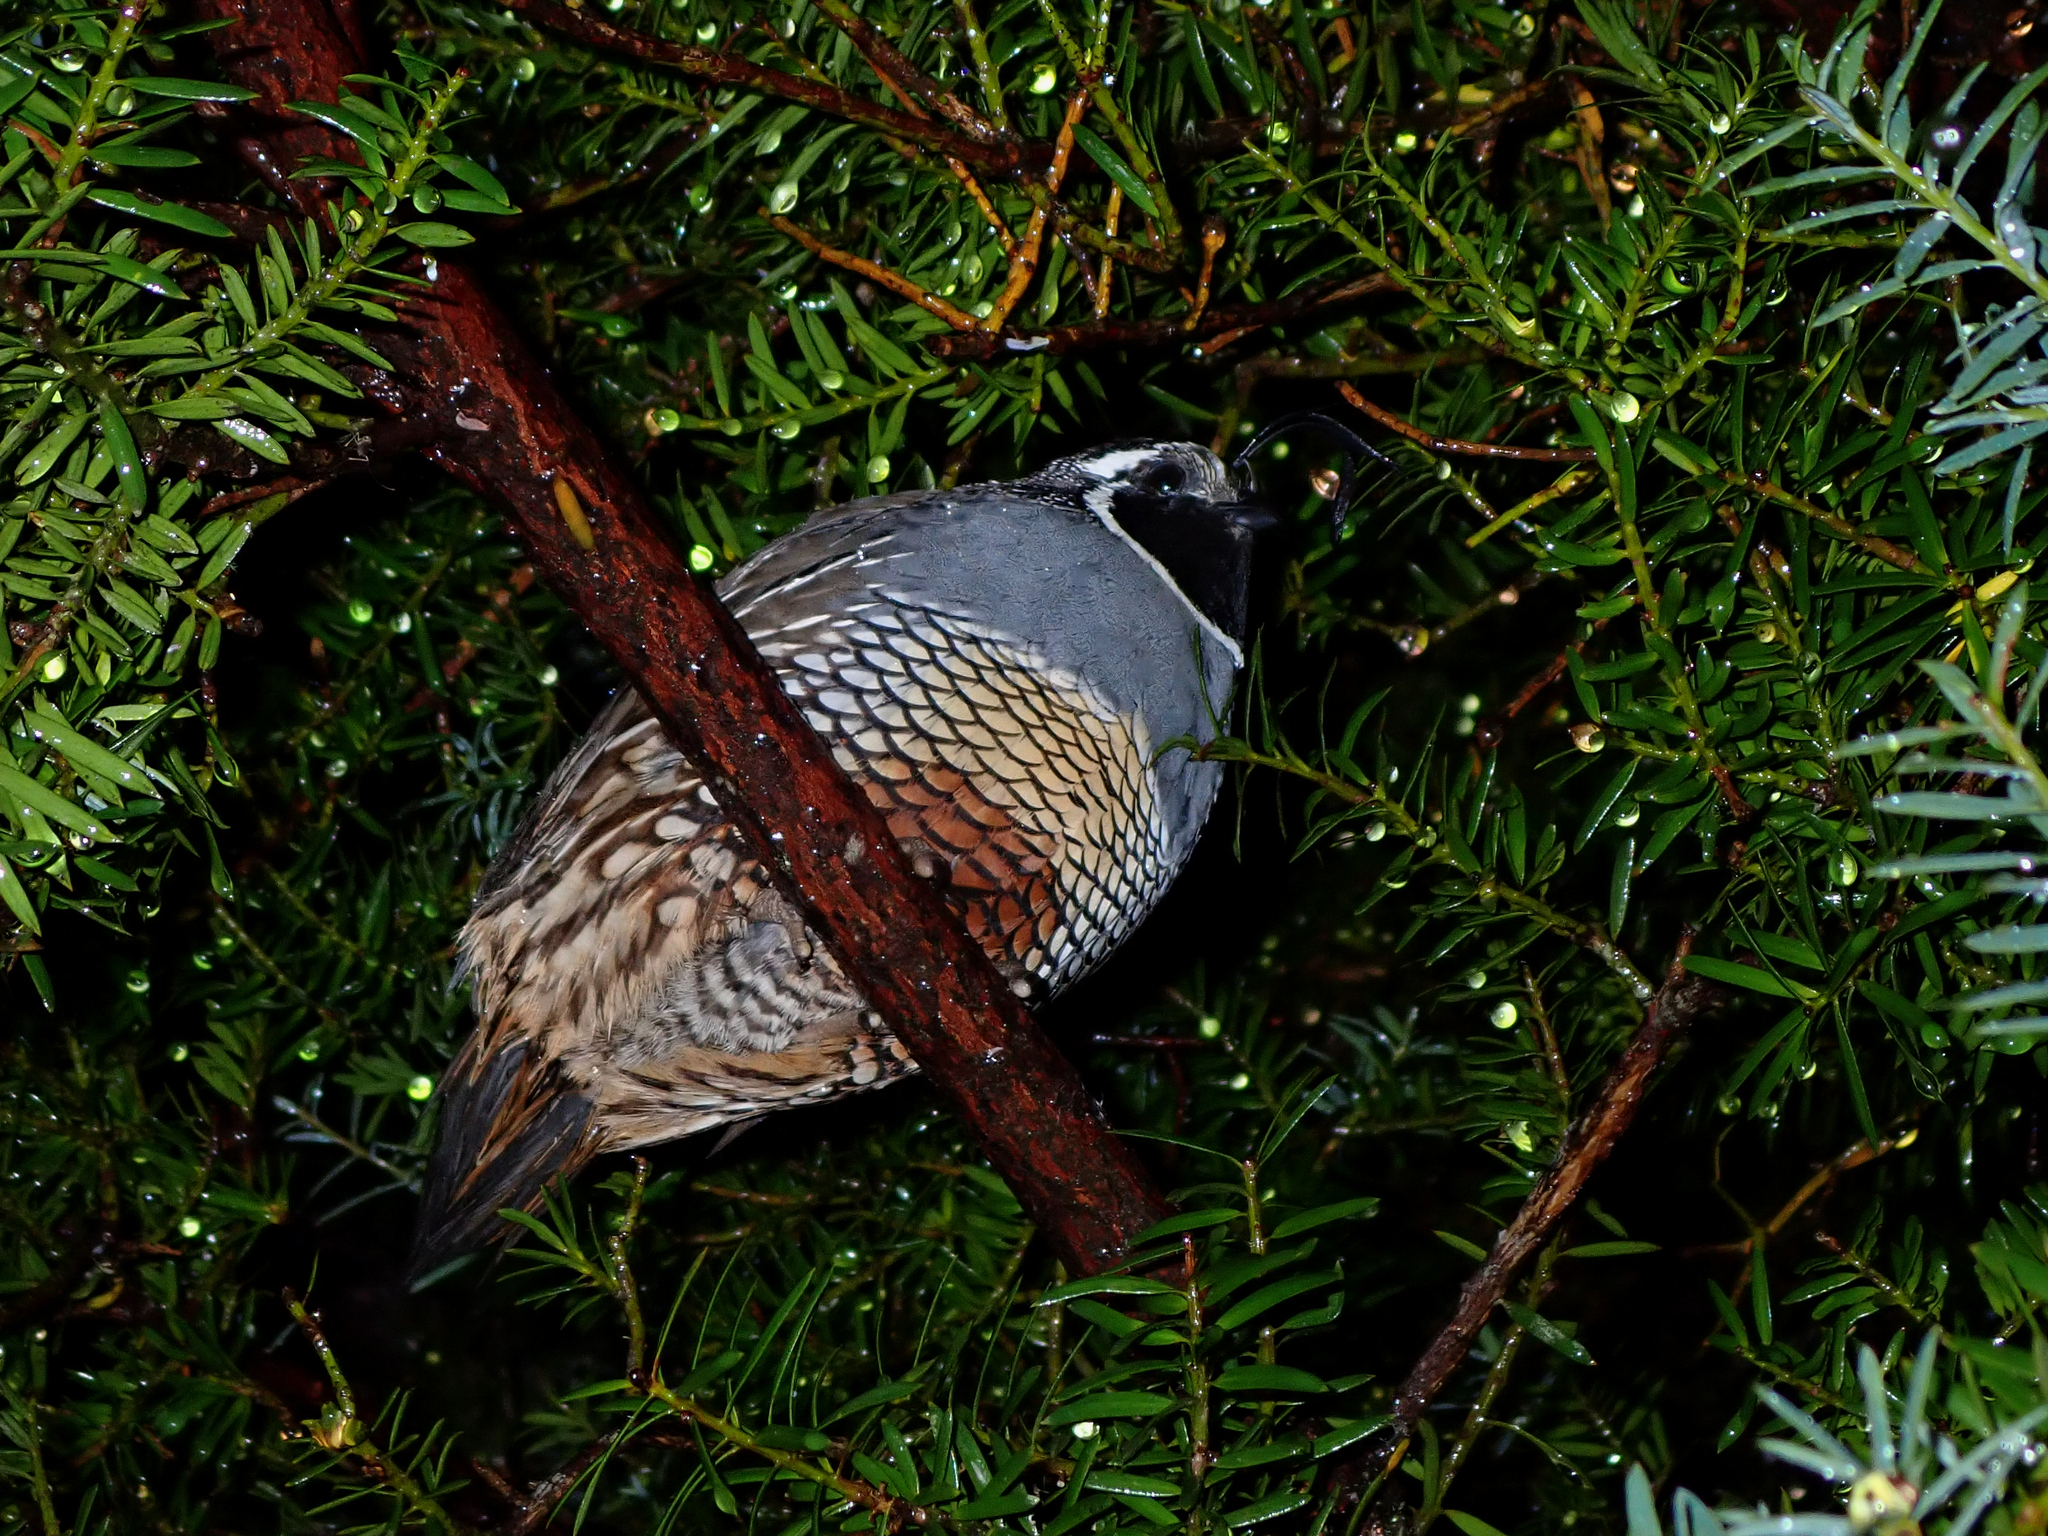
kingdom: Animalia
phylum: Chordata
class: Aves
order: Galliformes
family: Odontophoridae
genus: Callipepla
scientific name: Callipepla californica
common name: California quail
